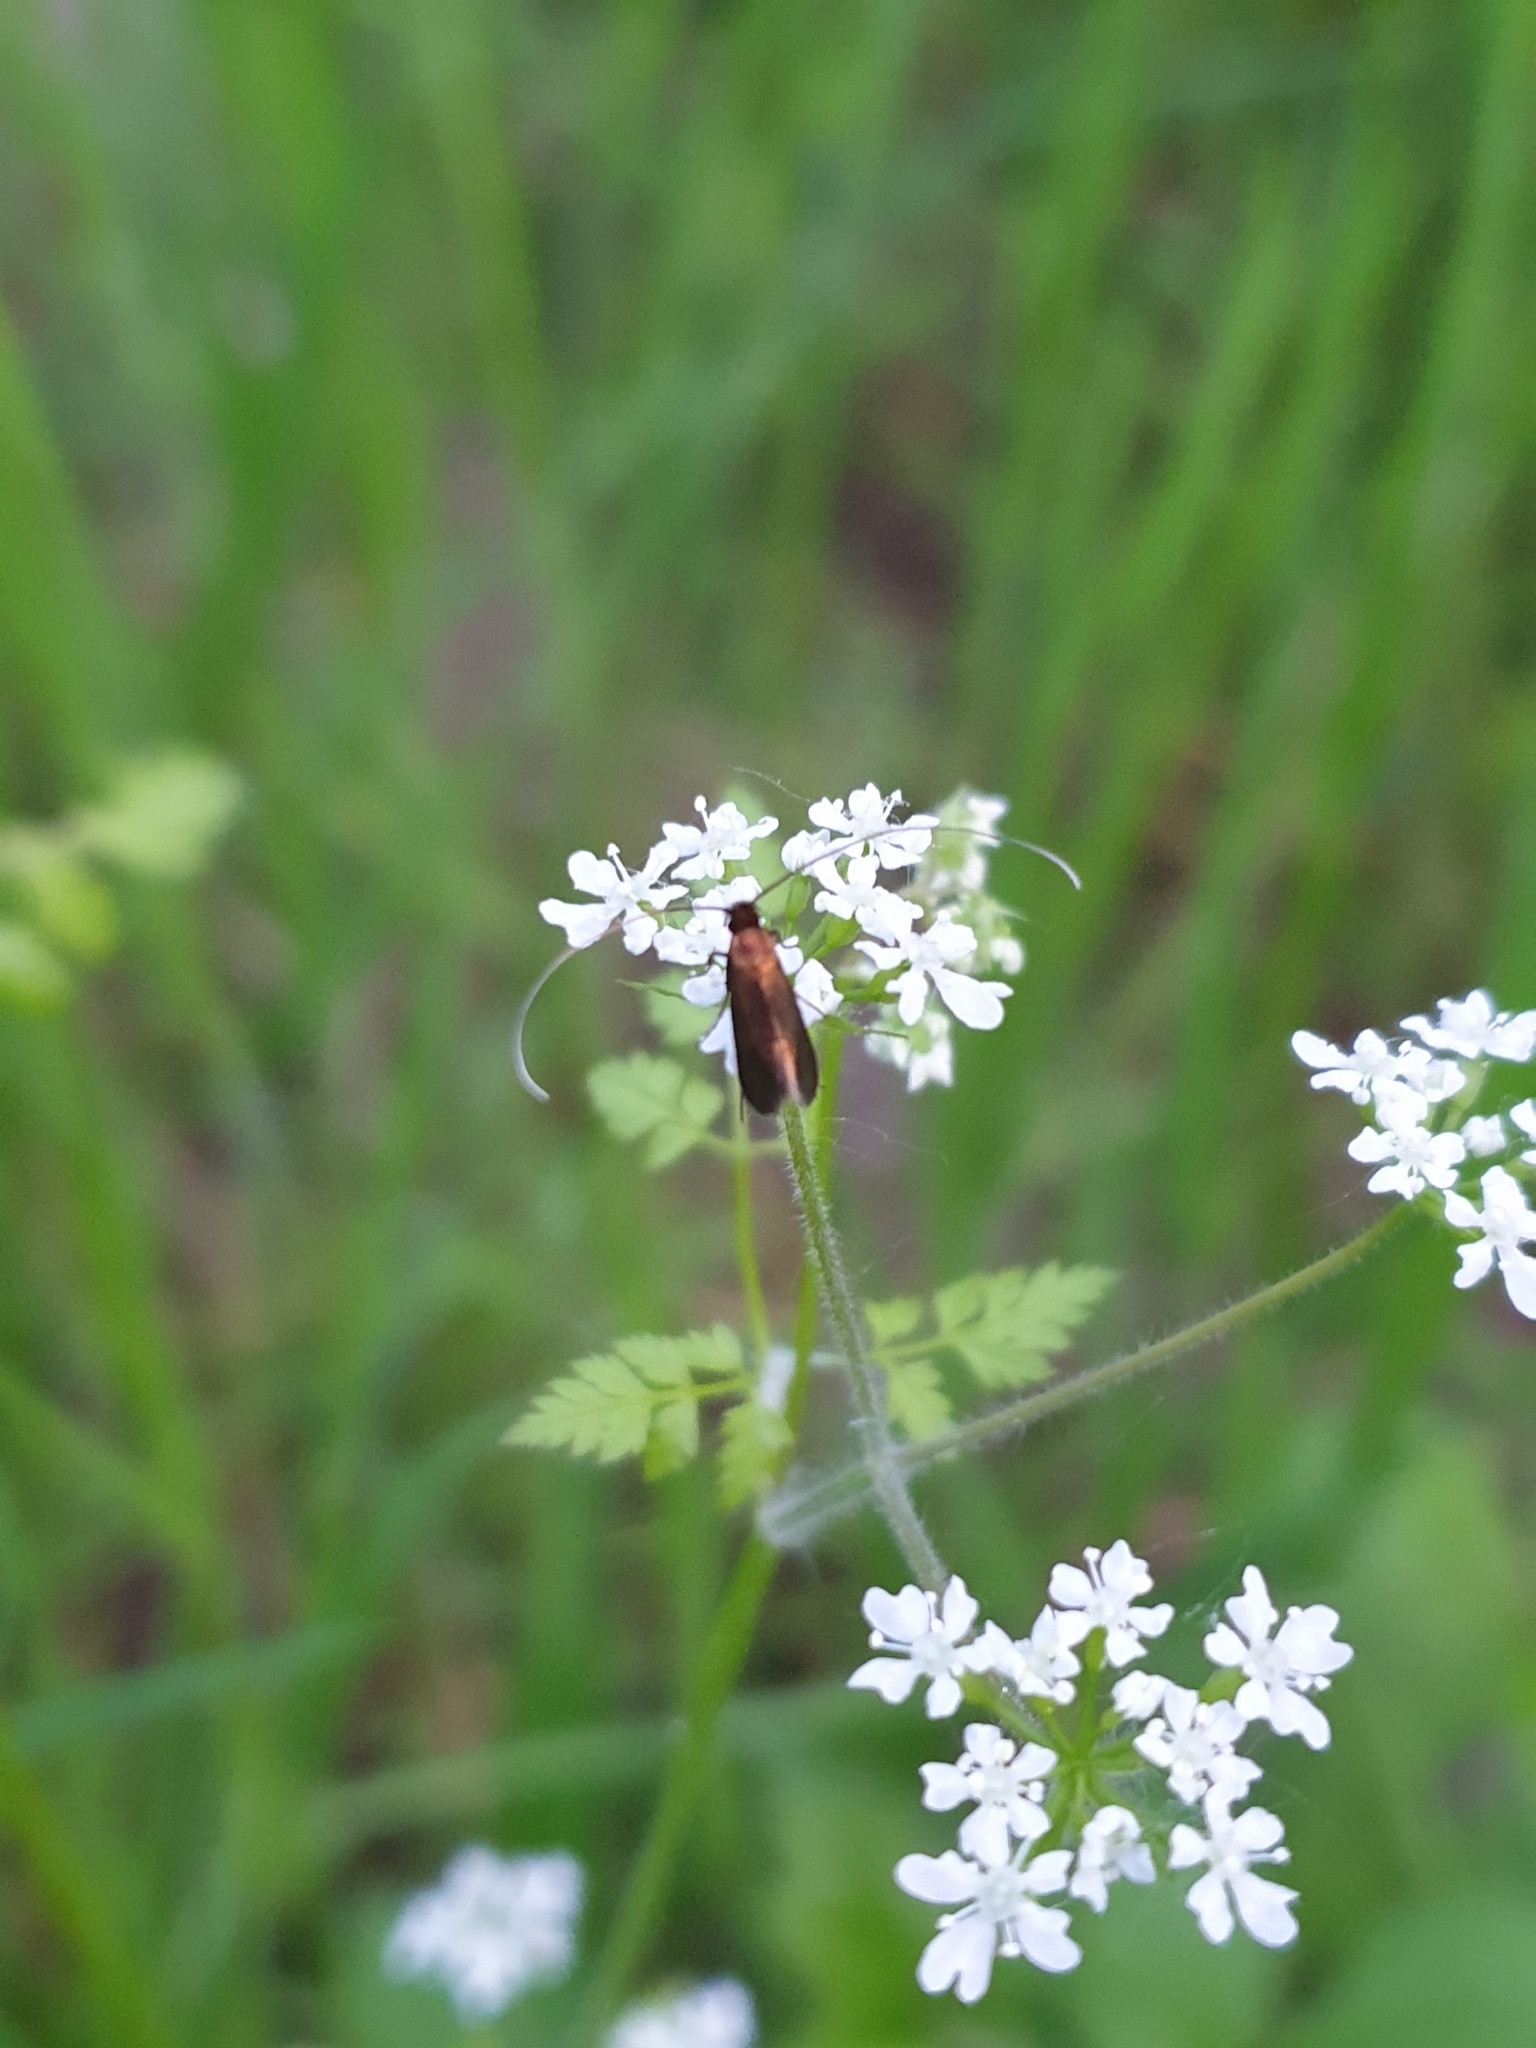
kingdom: Animalia
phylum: Arthropoda
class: Insecta
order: Lepidoptera
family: Adelidae
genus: Cauchas
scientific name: Cauchas rufimitrella
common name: Meadow long-horn
